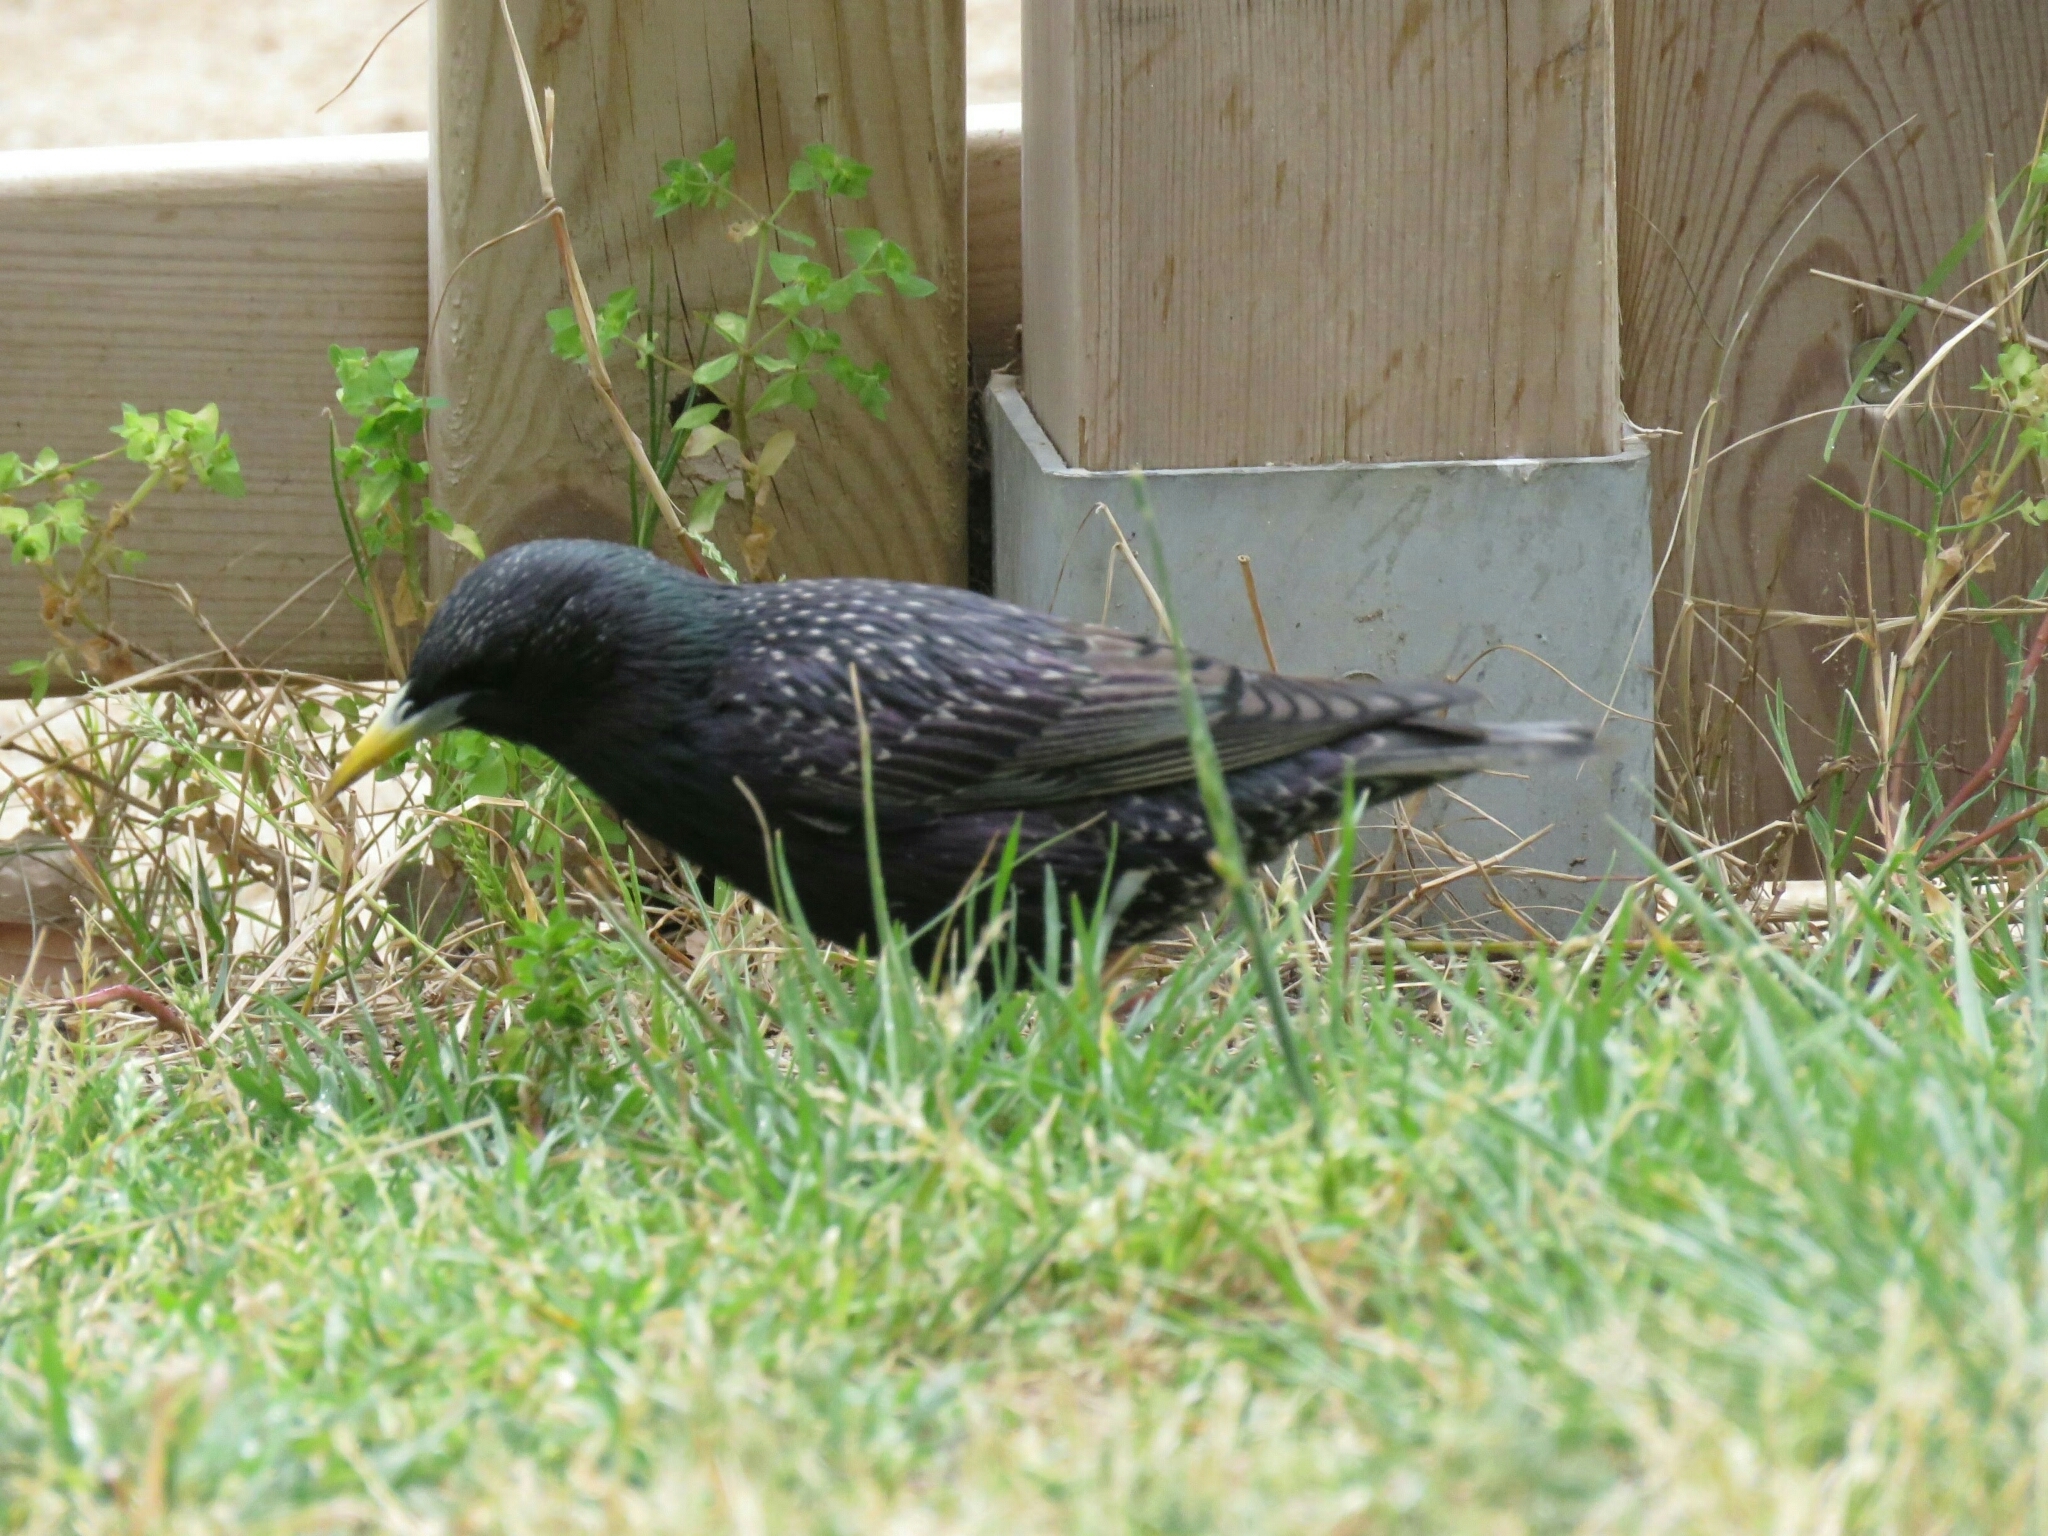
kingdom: Animalia
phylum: Chordata
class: Aves
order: Passeriformes
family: Sturnidae
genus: Sturnus
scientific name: Sturnus vulgaris
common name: Common starling
